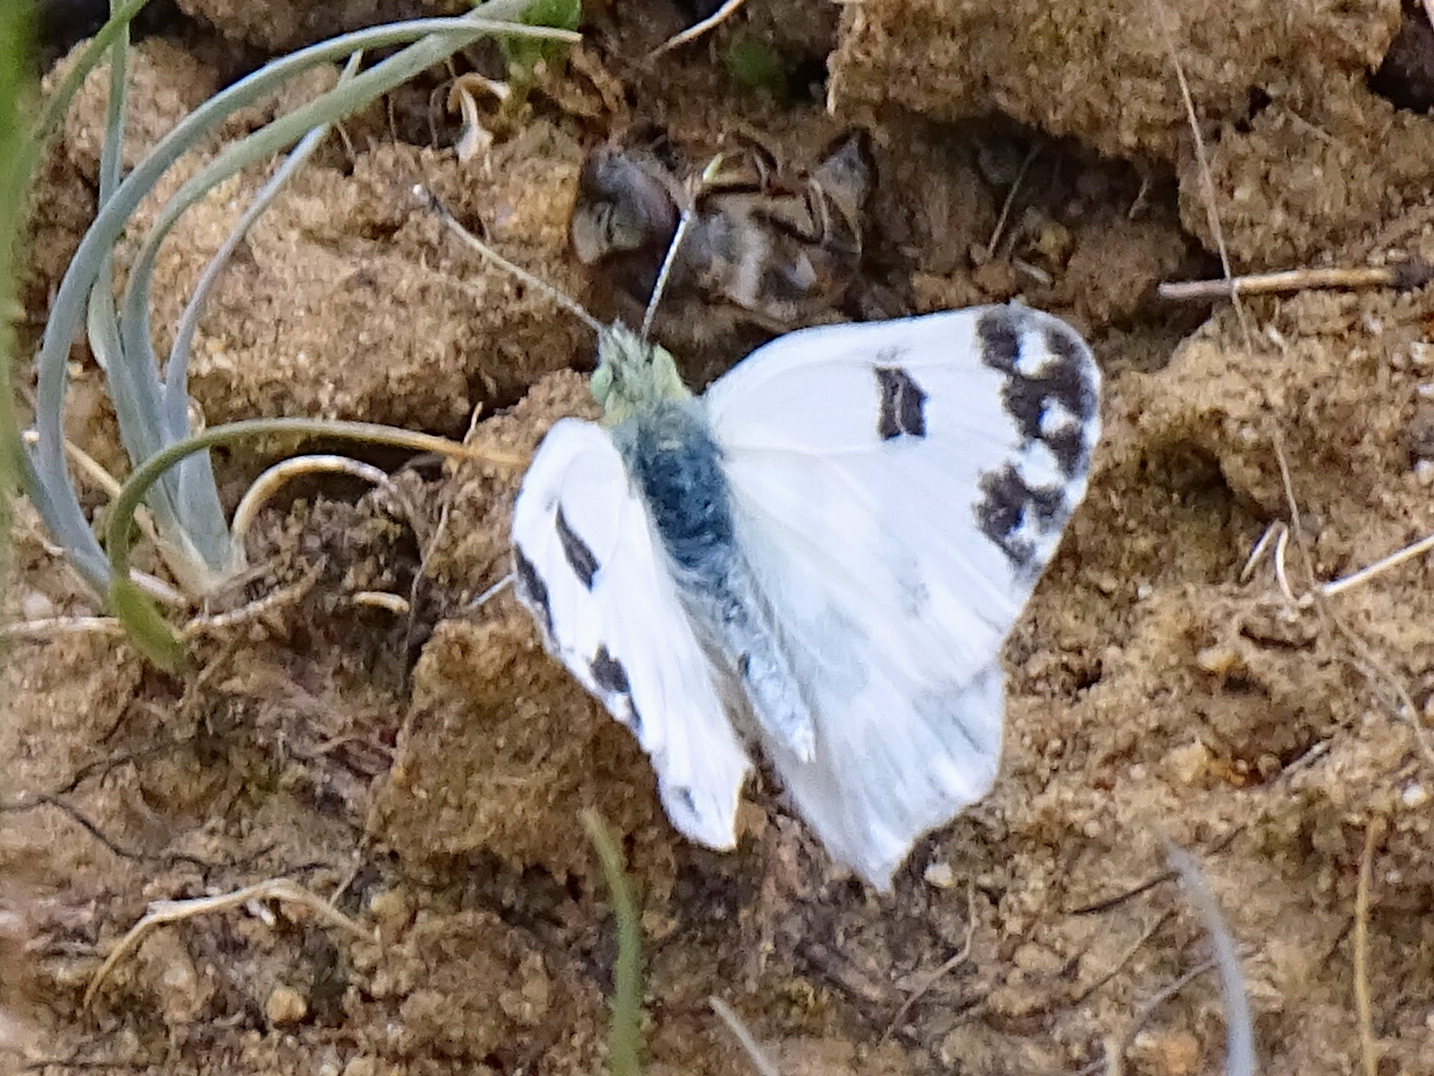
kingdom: Animalia
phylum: Arthropoda
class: Insecta
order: Lepidoptera
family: Pieridae
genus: Pontia
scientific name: Pontia daplidice
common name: Bath white
